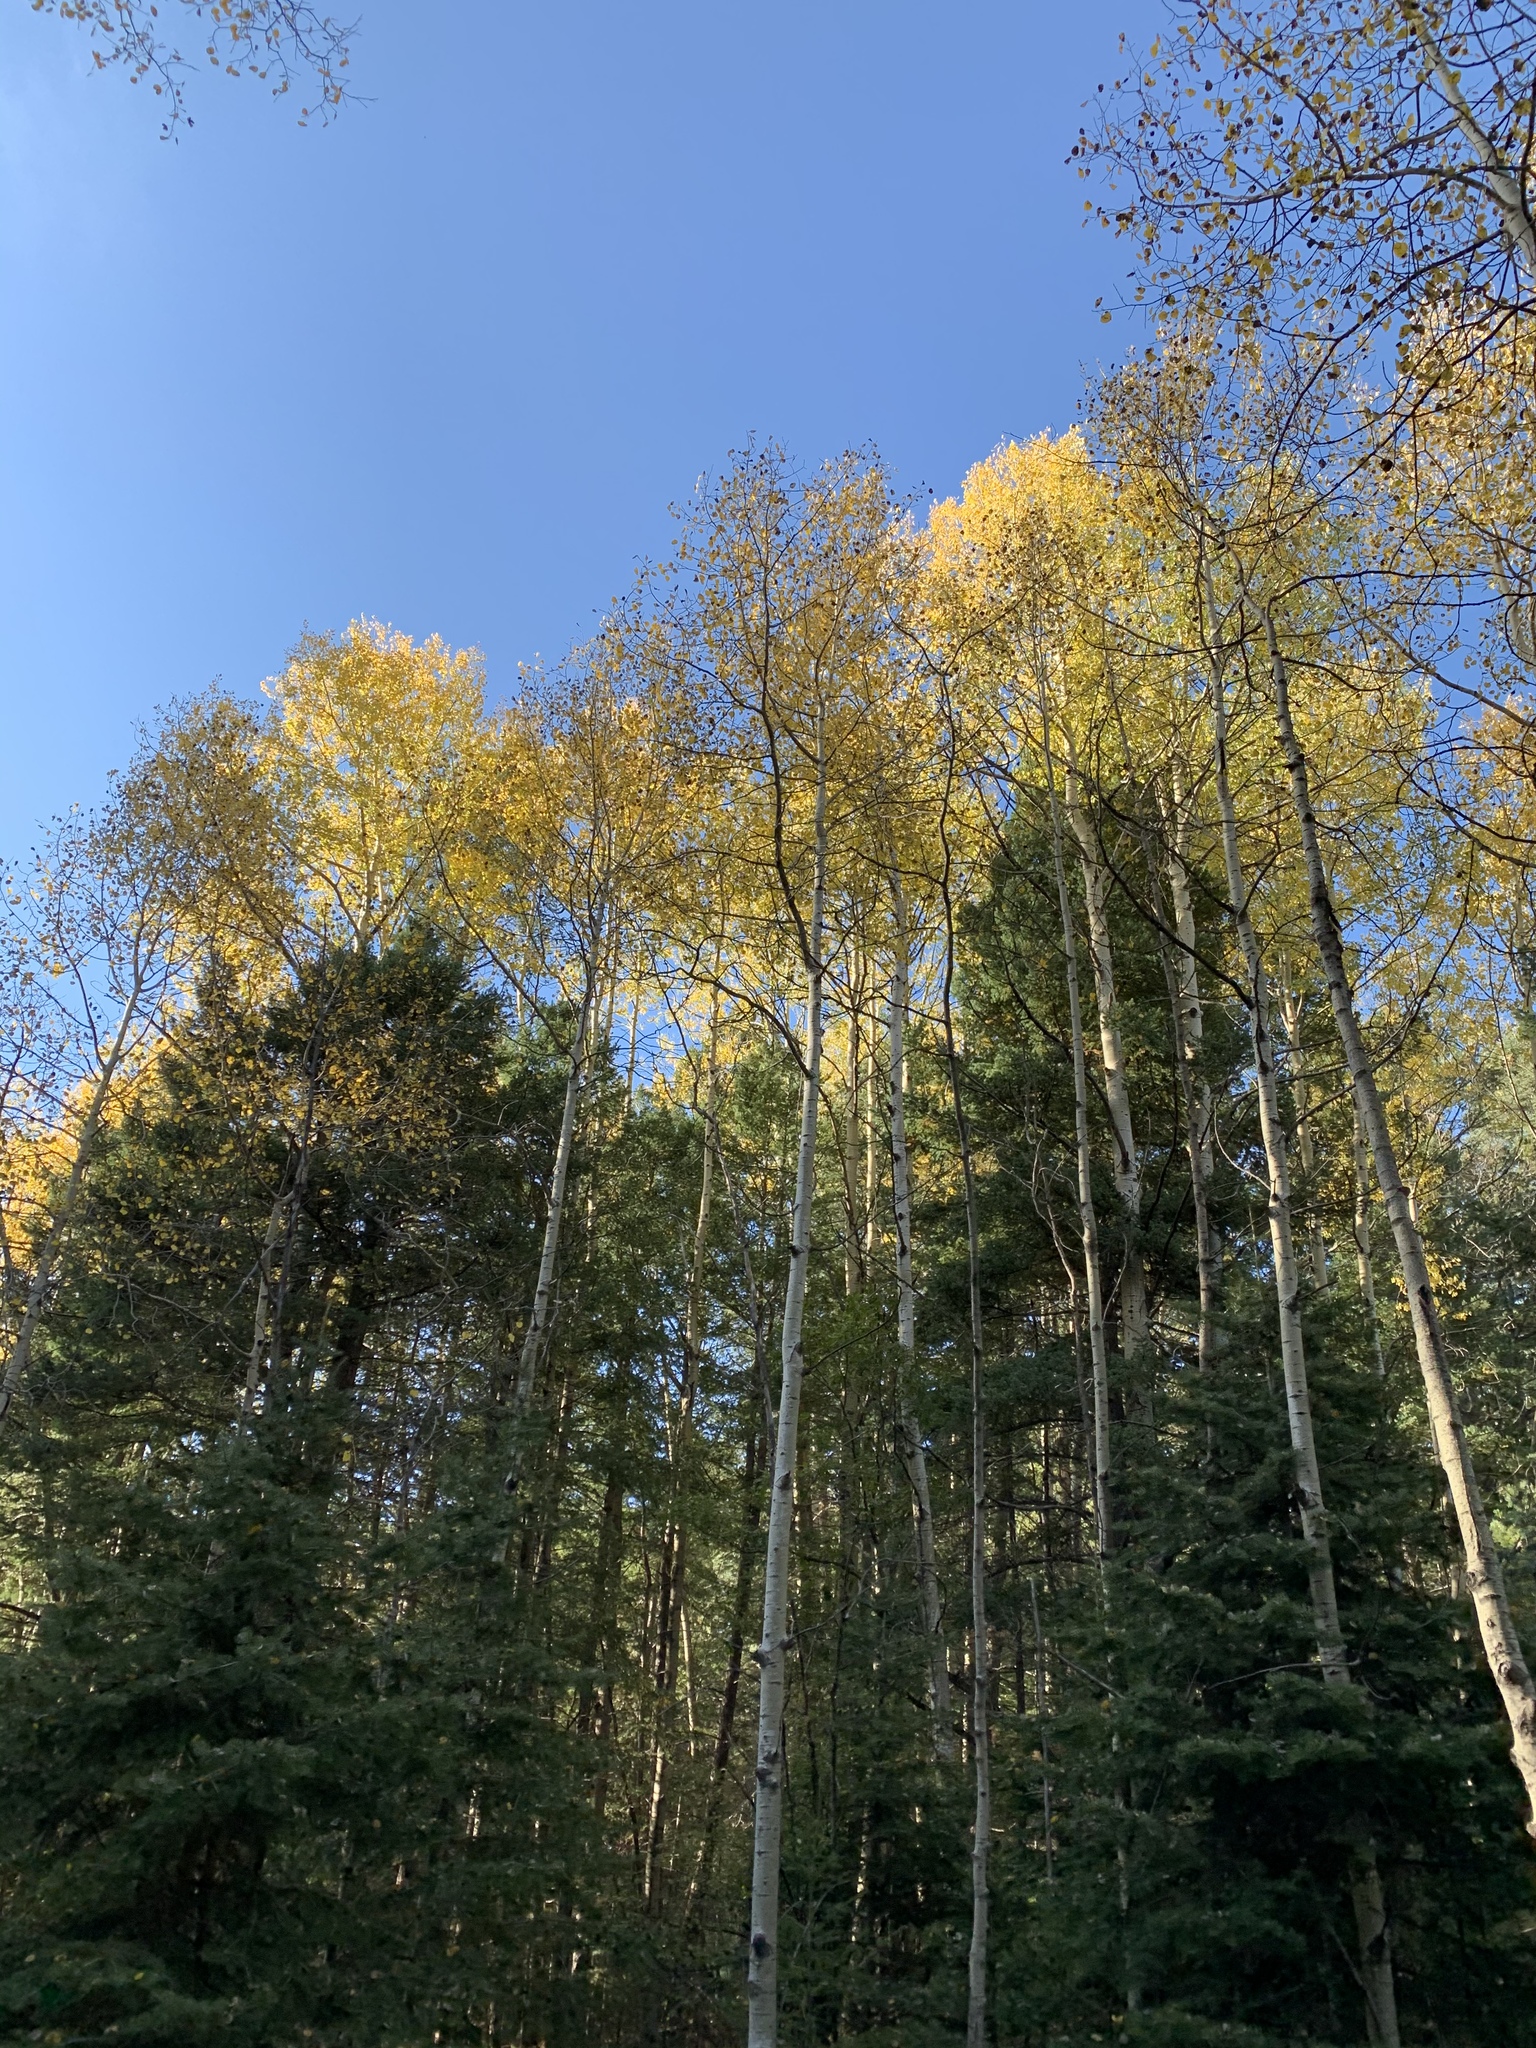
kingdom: Plantae
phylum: Tracheophyta
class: Magnoliopsida
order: Malpighiales
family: Salicaceae
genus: Populus
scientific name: Populus tremuloides
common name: Quaking aspen
